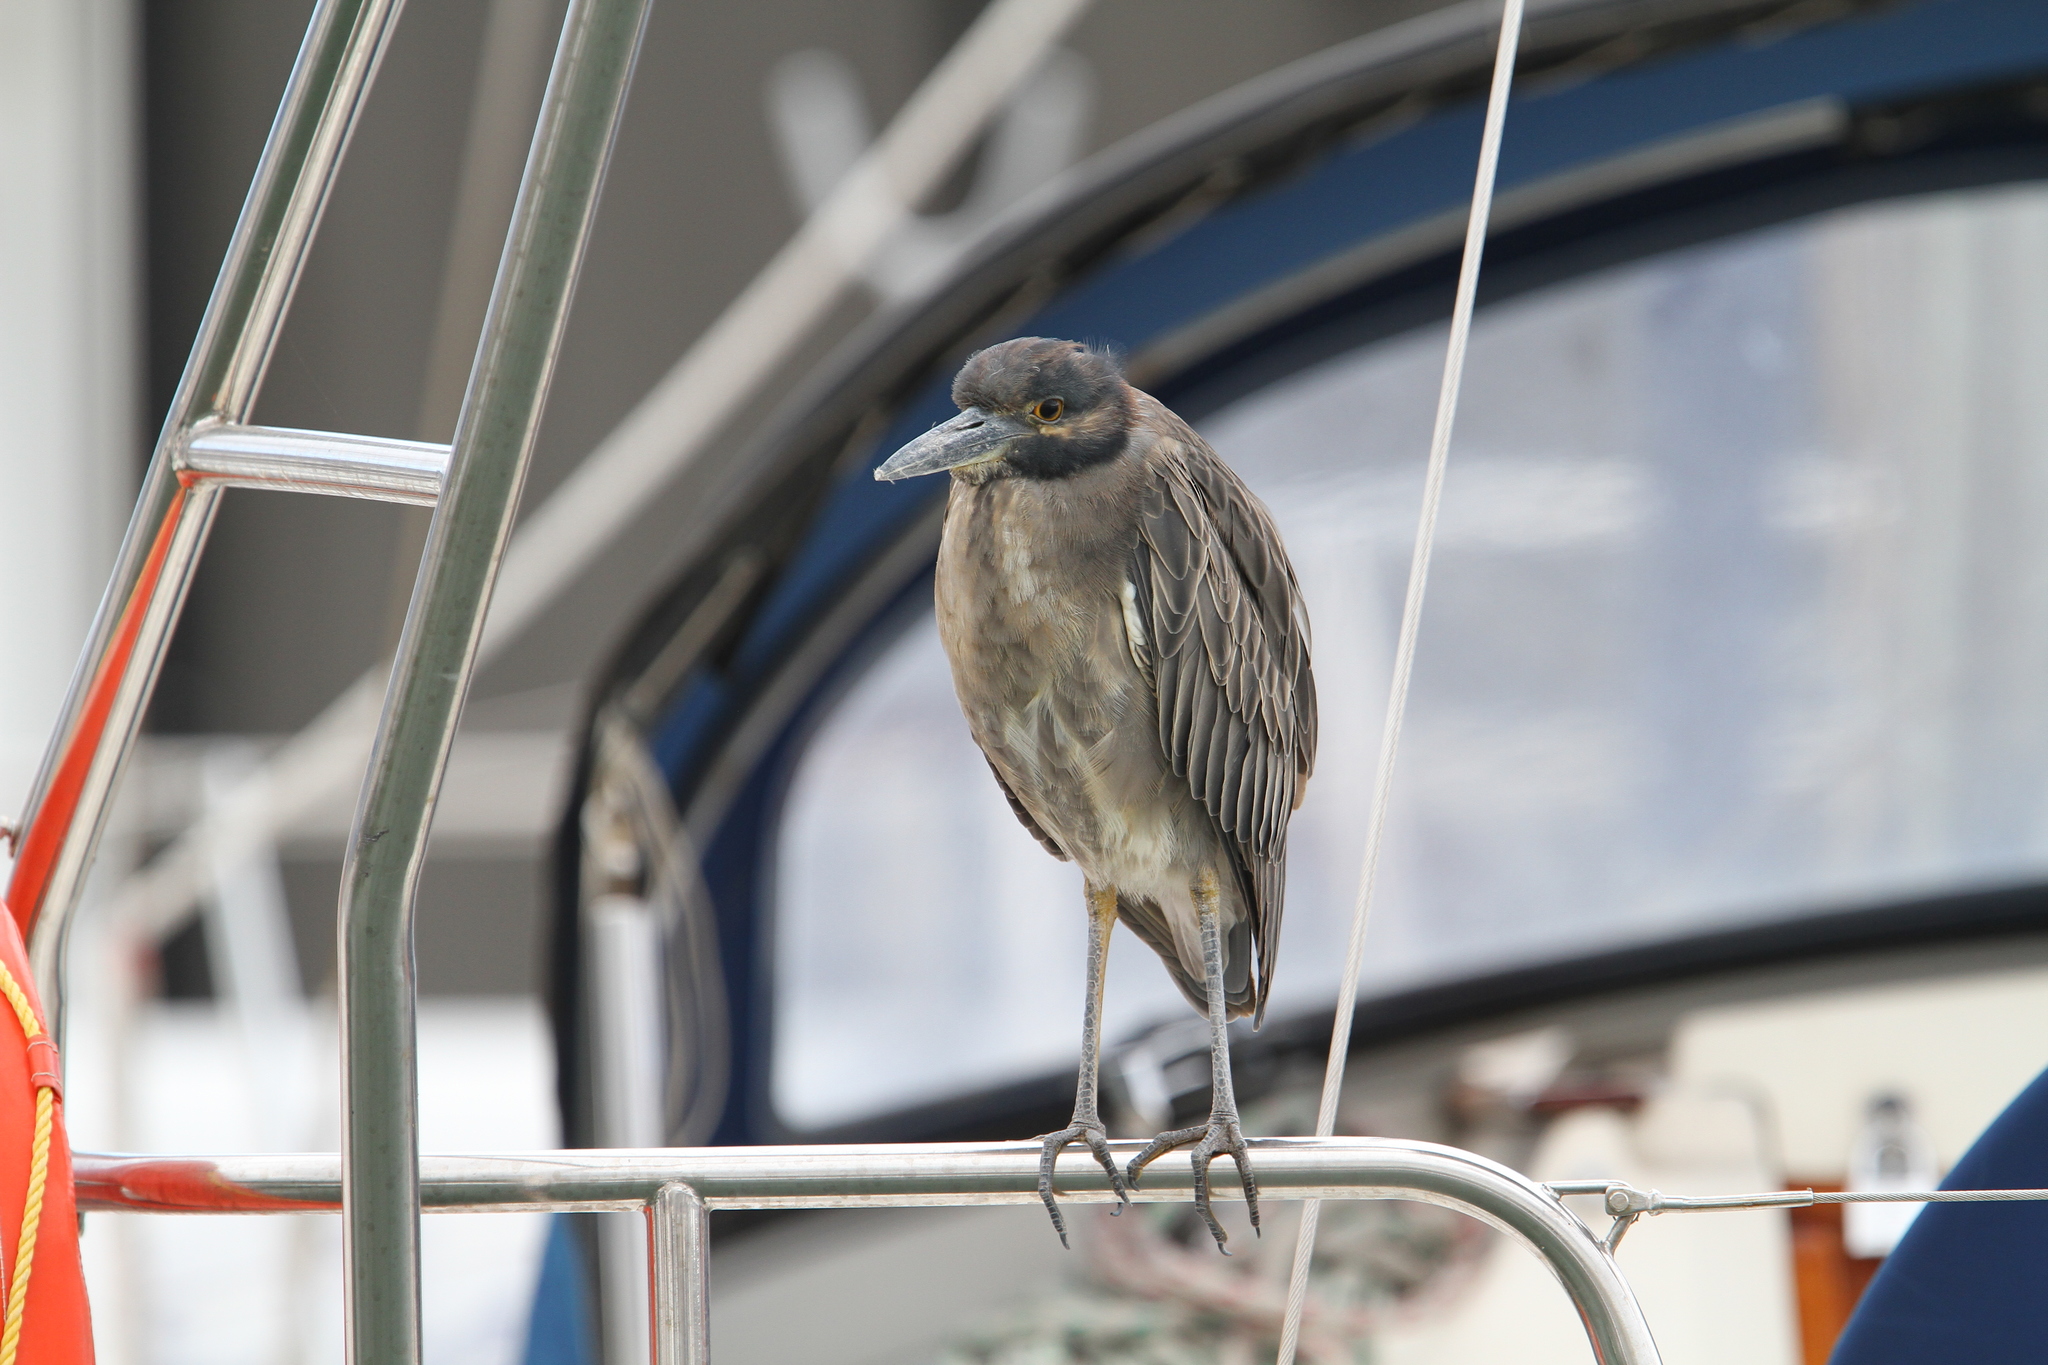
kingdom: Animalia
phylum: Chordata
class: Aves
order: Pelecaniformes
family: Ardeidae
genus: Nyctanassa
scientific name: Nyctanassa violacea
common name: Yellow-crowned night heron
